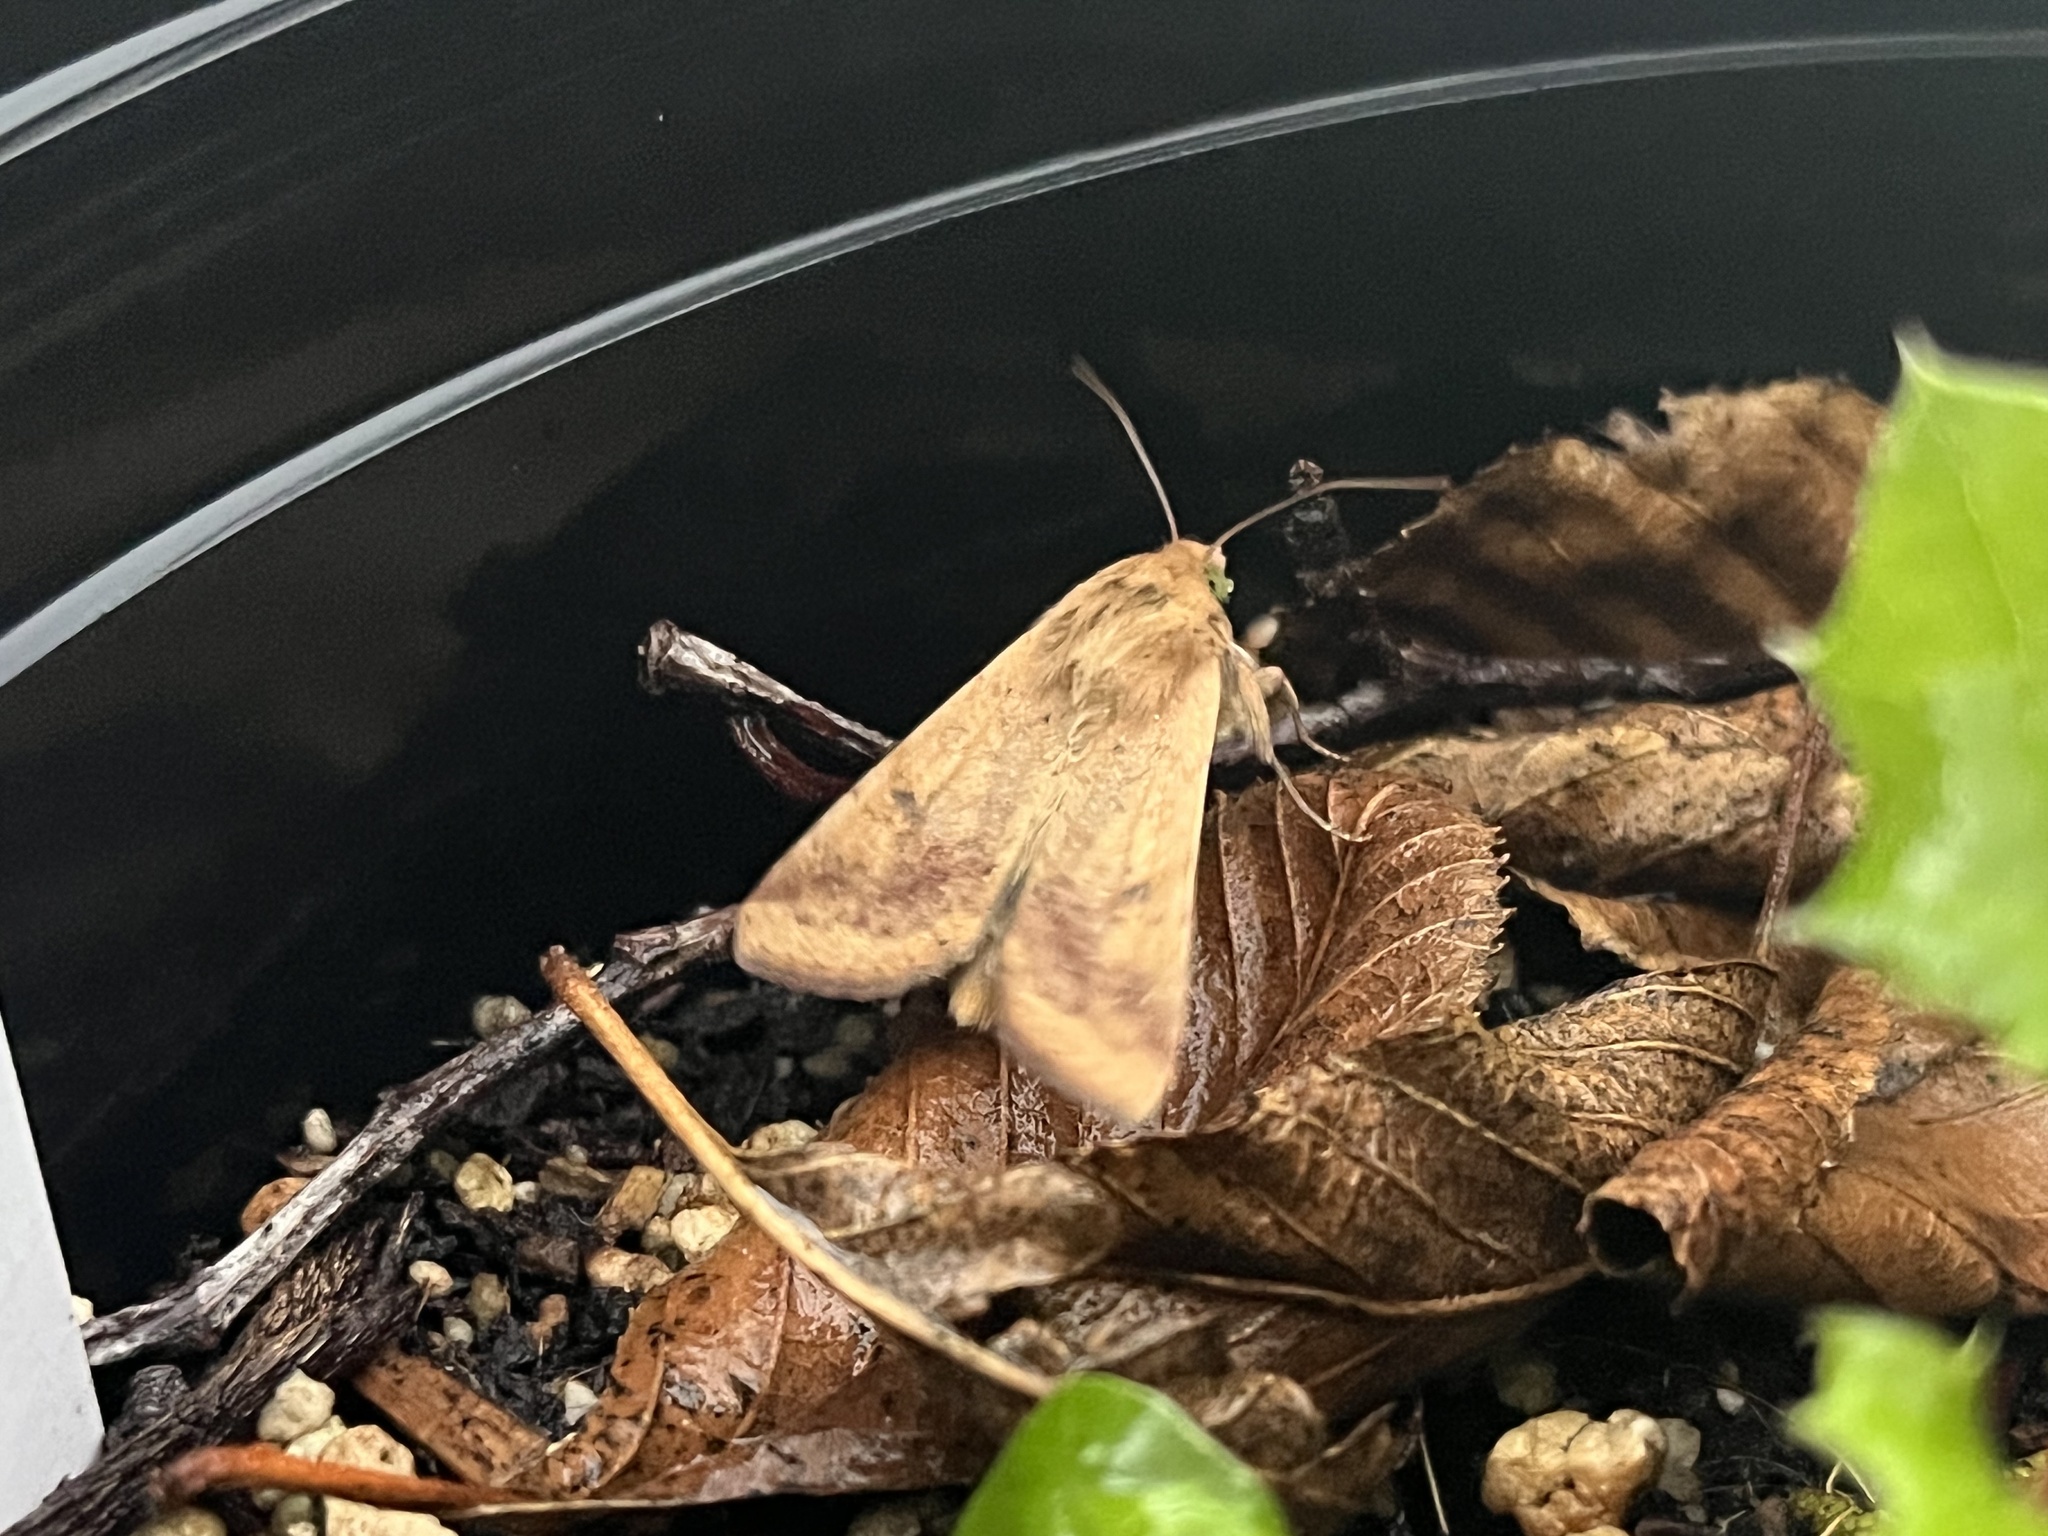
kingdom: Animalia
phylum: Arthropoda
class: Insecta
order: Lepidoptera
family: Noctuidae
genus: Helicoverpa
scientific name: Helicoverpa zea
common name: Bollworm
